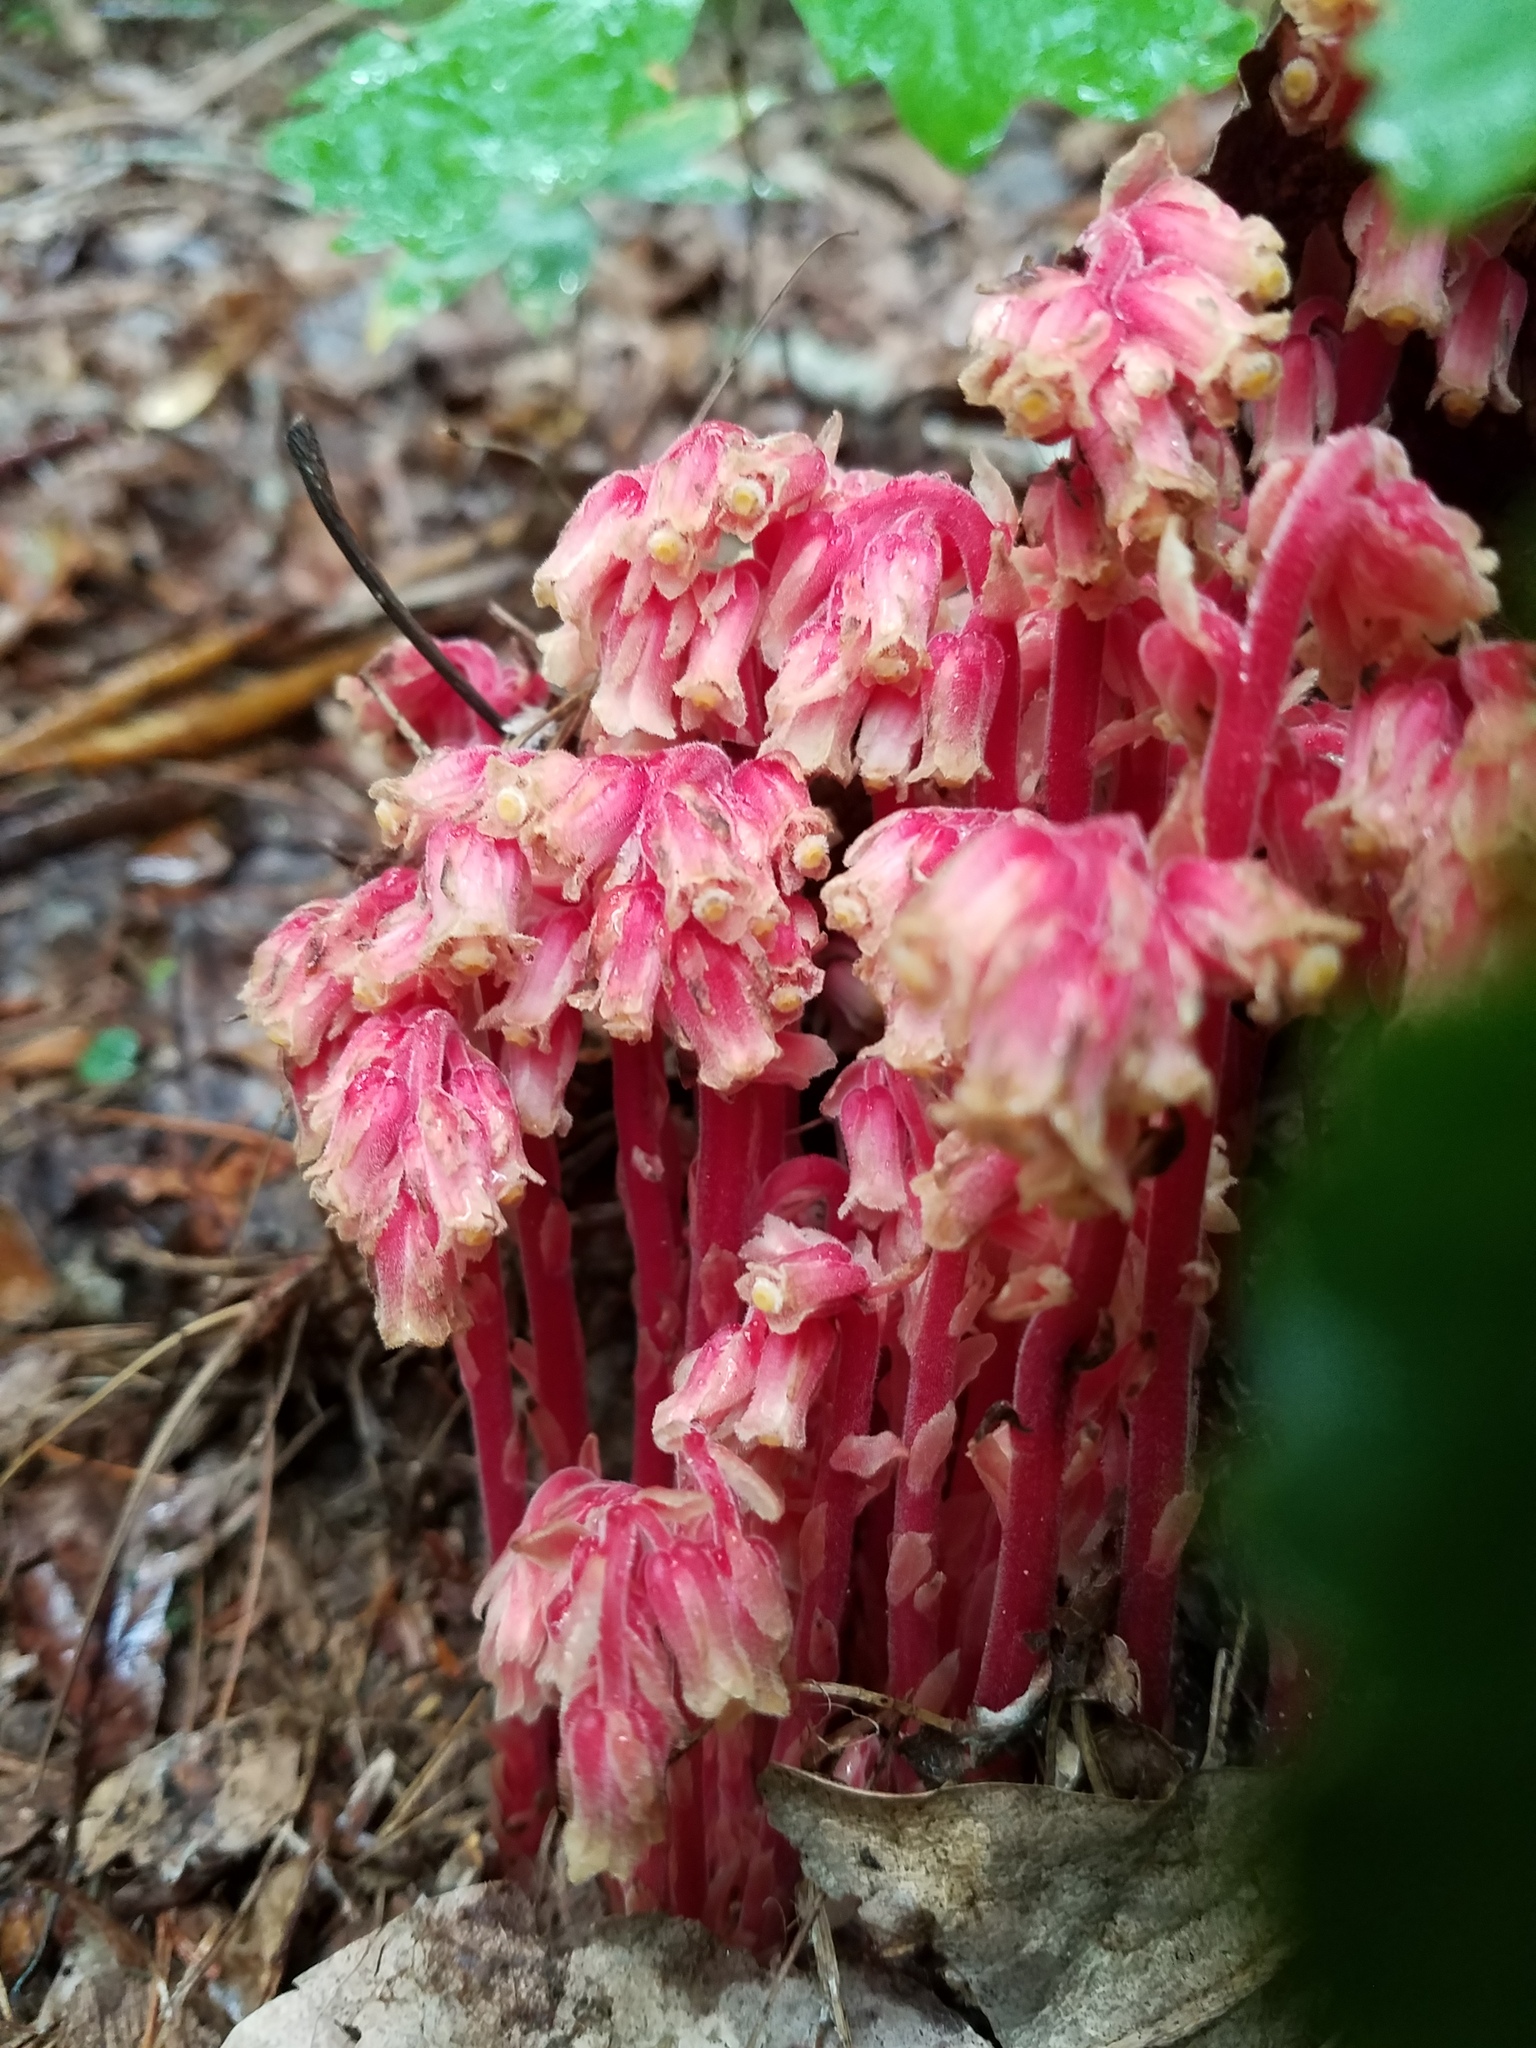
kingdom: Plantae
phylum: Tracheophyta
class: Magnoliopsida
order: Ericales
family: Ericaceae
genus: Hypopitys
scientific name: Hypopitys monotropa
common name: Yellow bird's-nest
